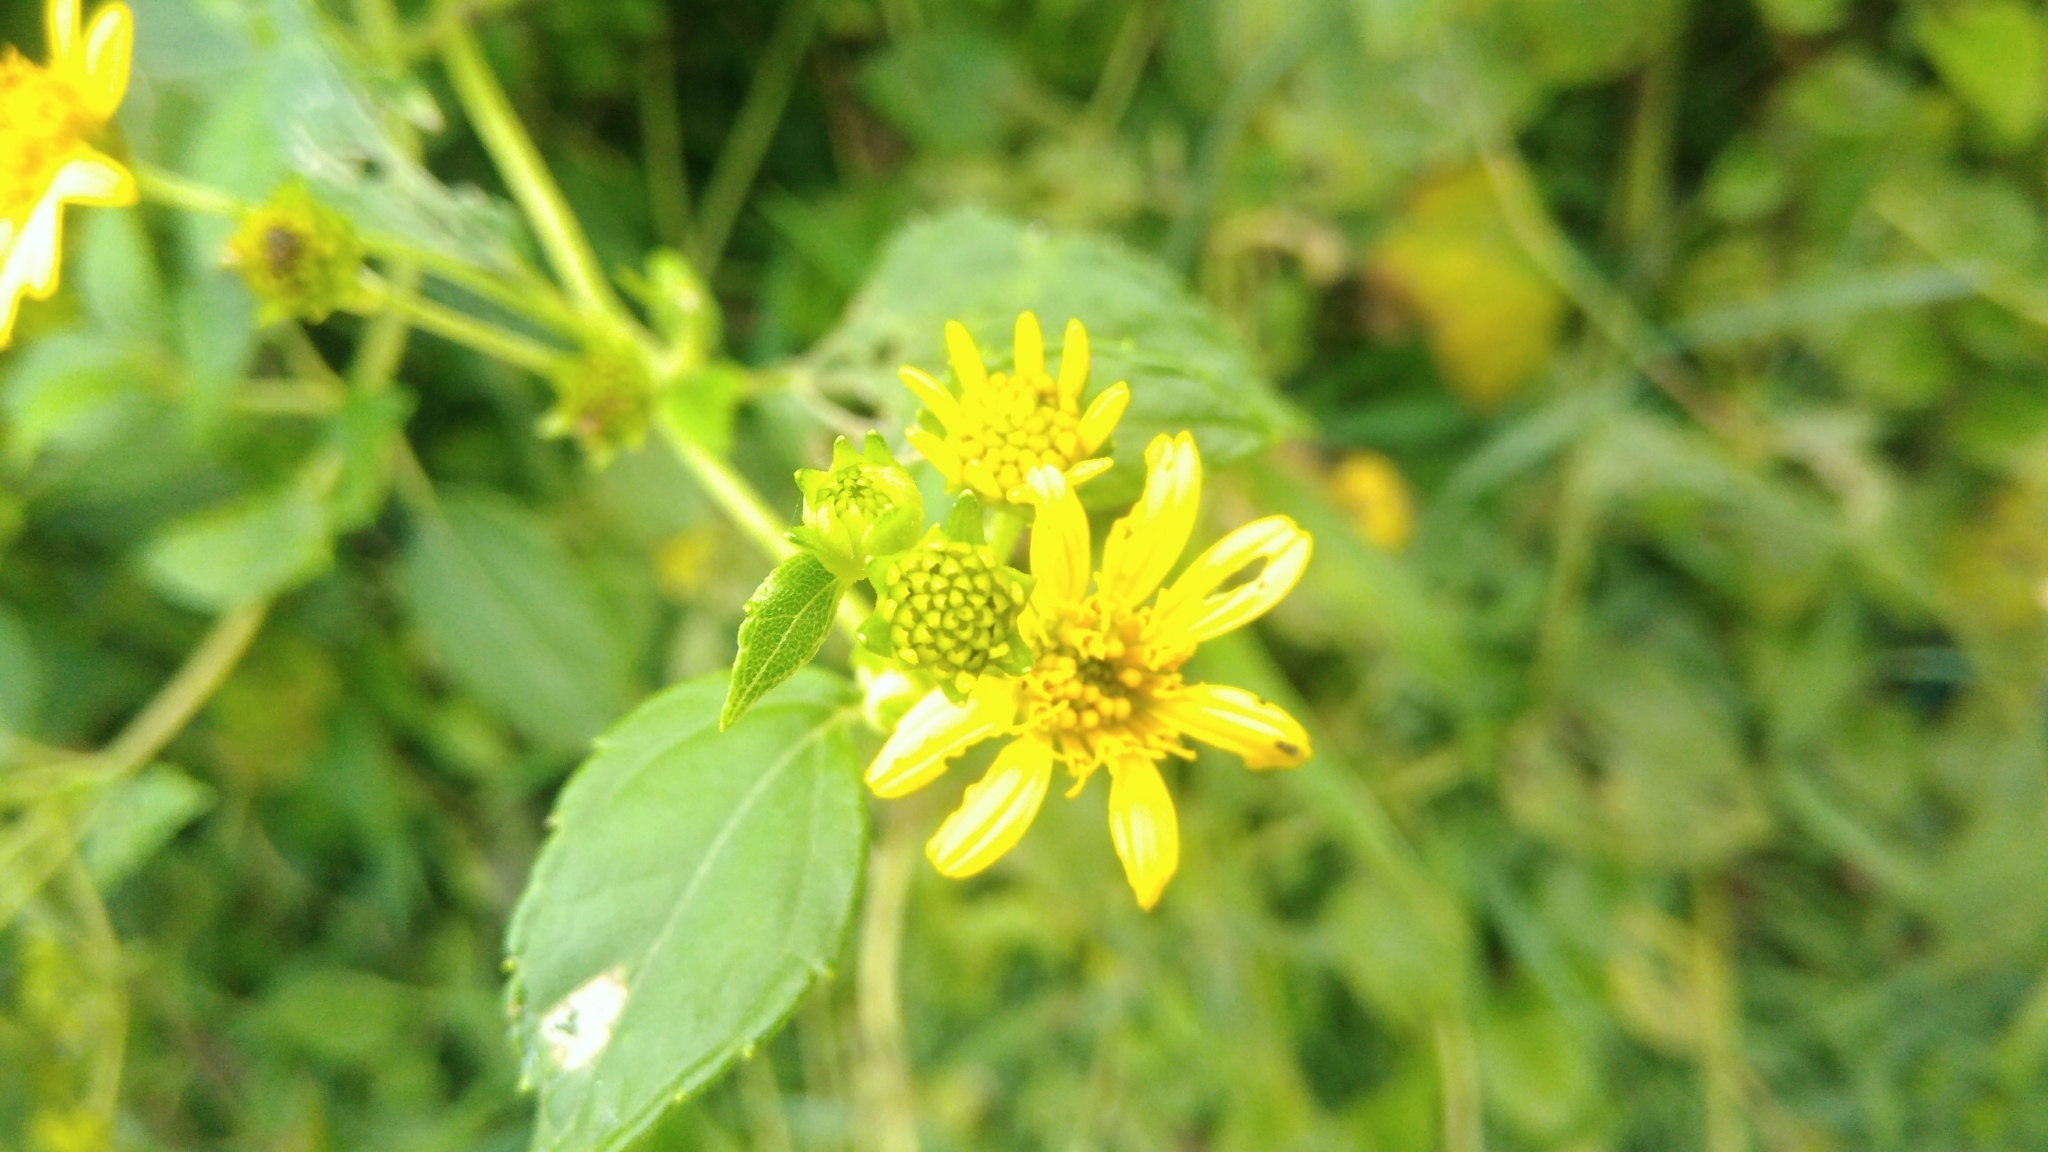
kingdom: Plantae
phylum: Tracheophyta
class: Magnoliopsida
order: Asterales
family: Asteraceae
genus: Wollastonia
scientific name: Wollastonia biflora
